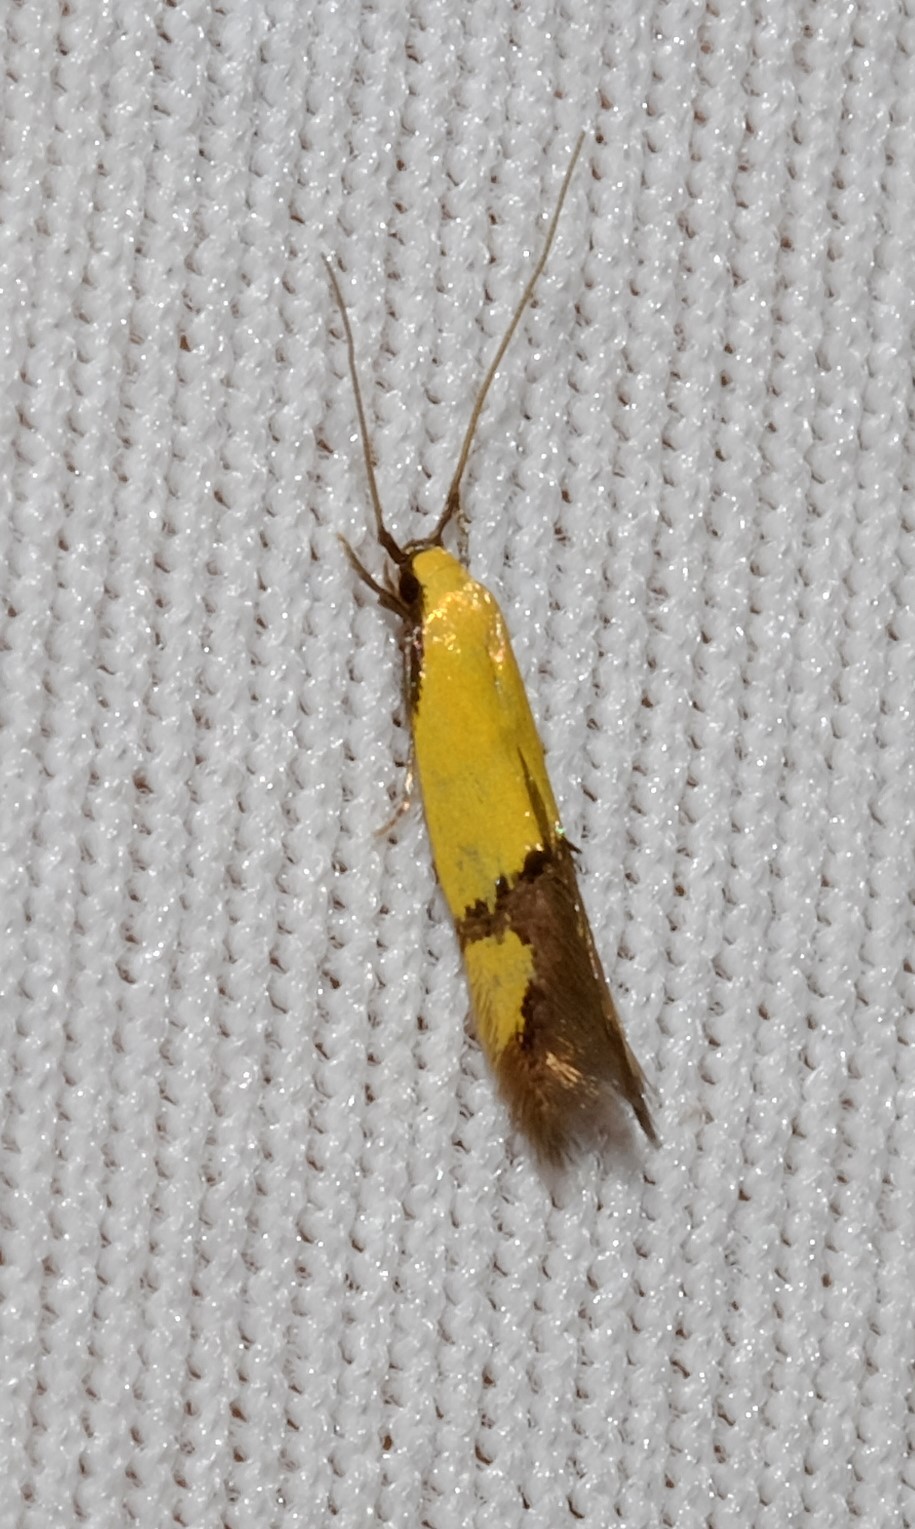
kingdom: Animalia
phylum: Arthropoda
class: Insecta
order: Lepidoptera
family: Tineidae
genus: Opogona
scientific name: Opogona stereodyta
